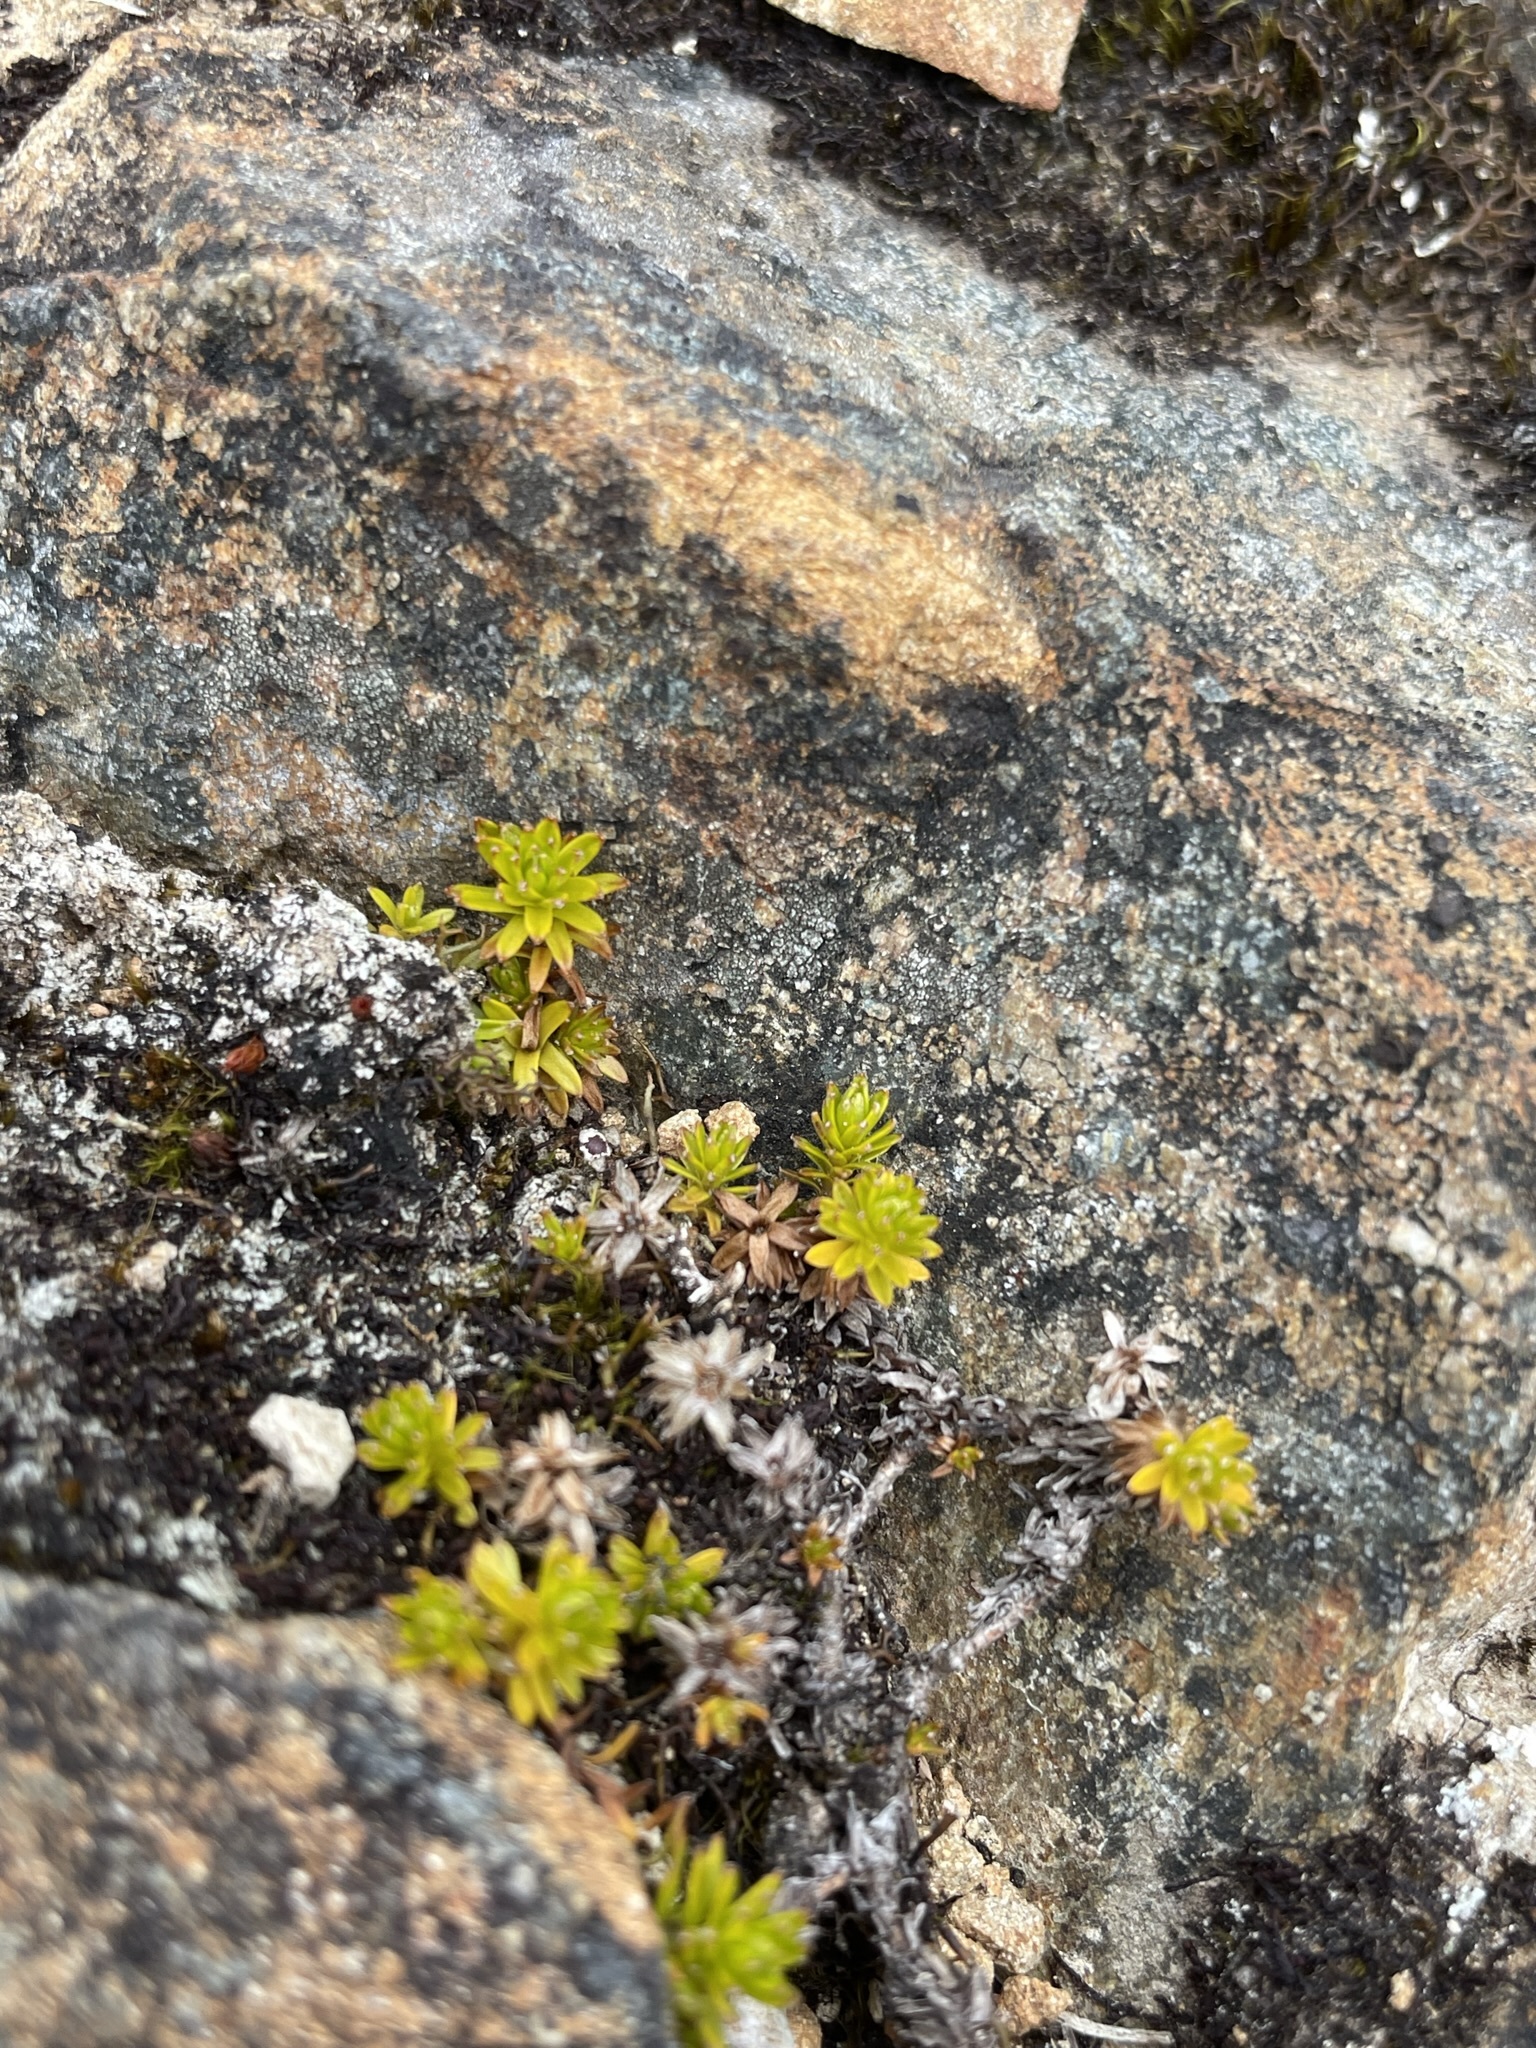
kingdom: Plantae
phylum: Tracheophyta
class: Magnoliopsida
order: Asterales
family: Asteraceae
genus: Raoulia
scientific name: Raoulia glabra
